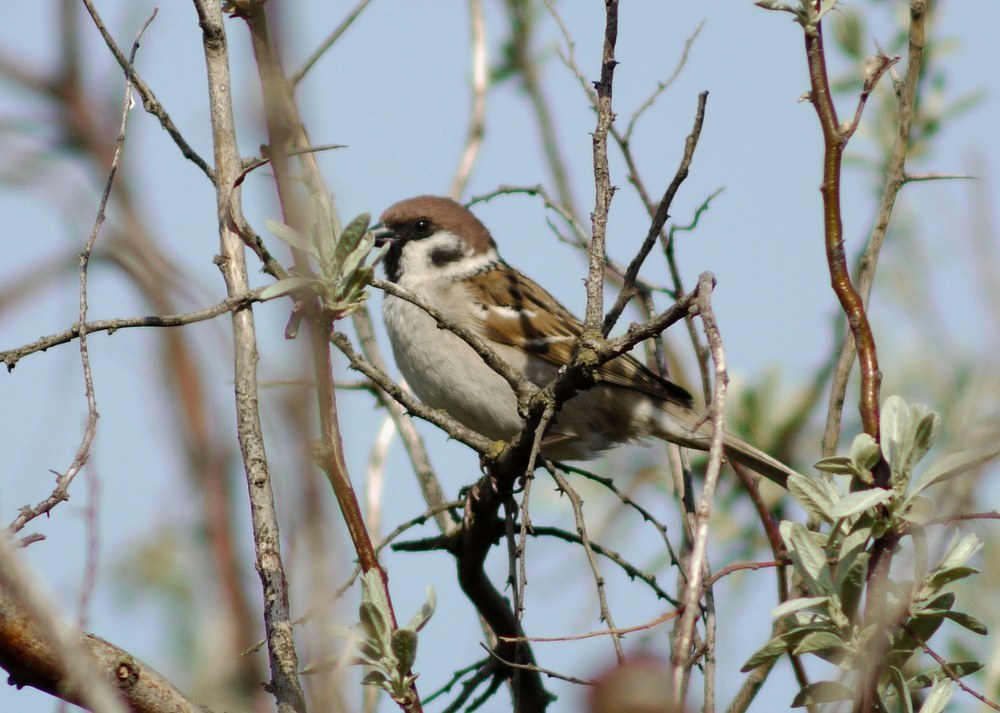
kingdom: Animalia
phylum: Chordata
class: Aves
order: Passeriformes
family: Passeridae
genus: Passer
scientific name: Passer montanus
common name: Eurasian tree sparrow
